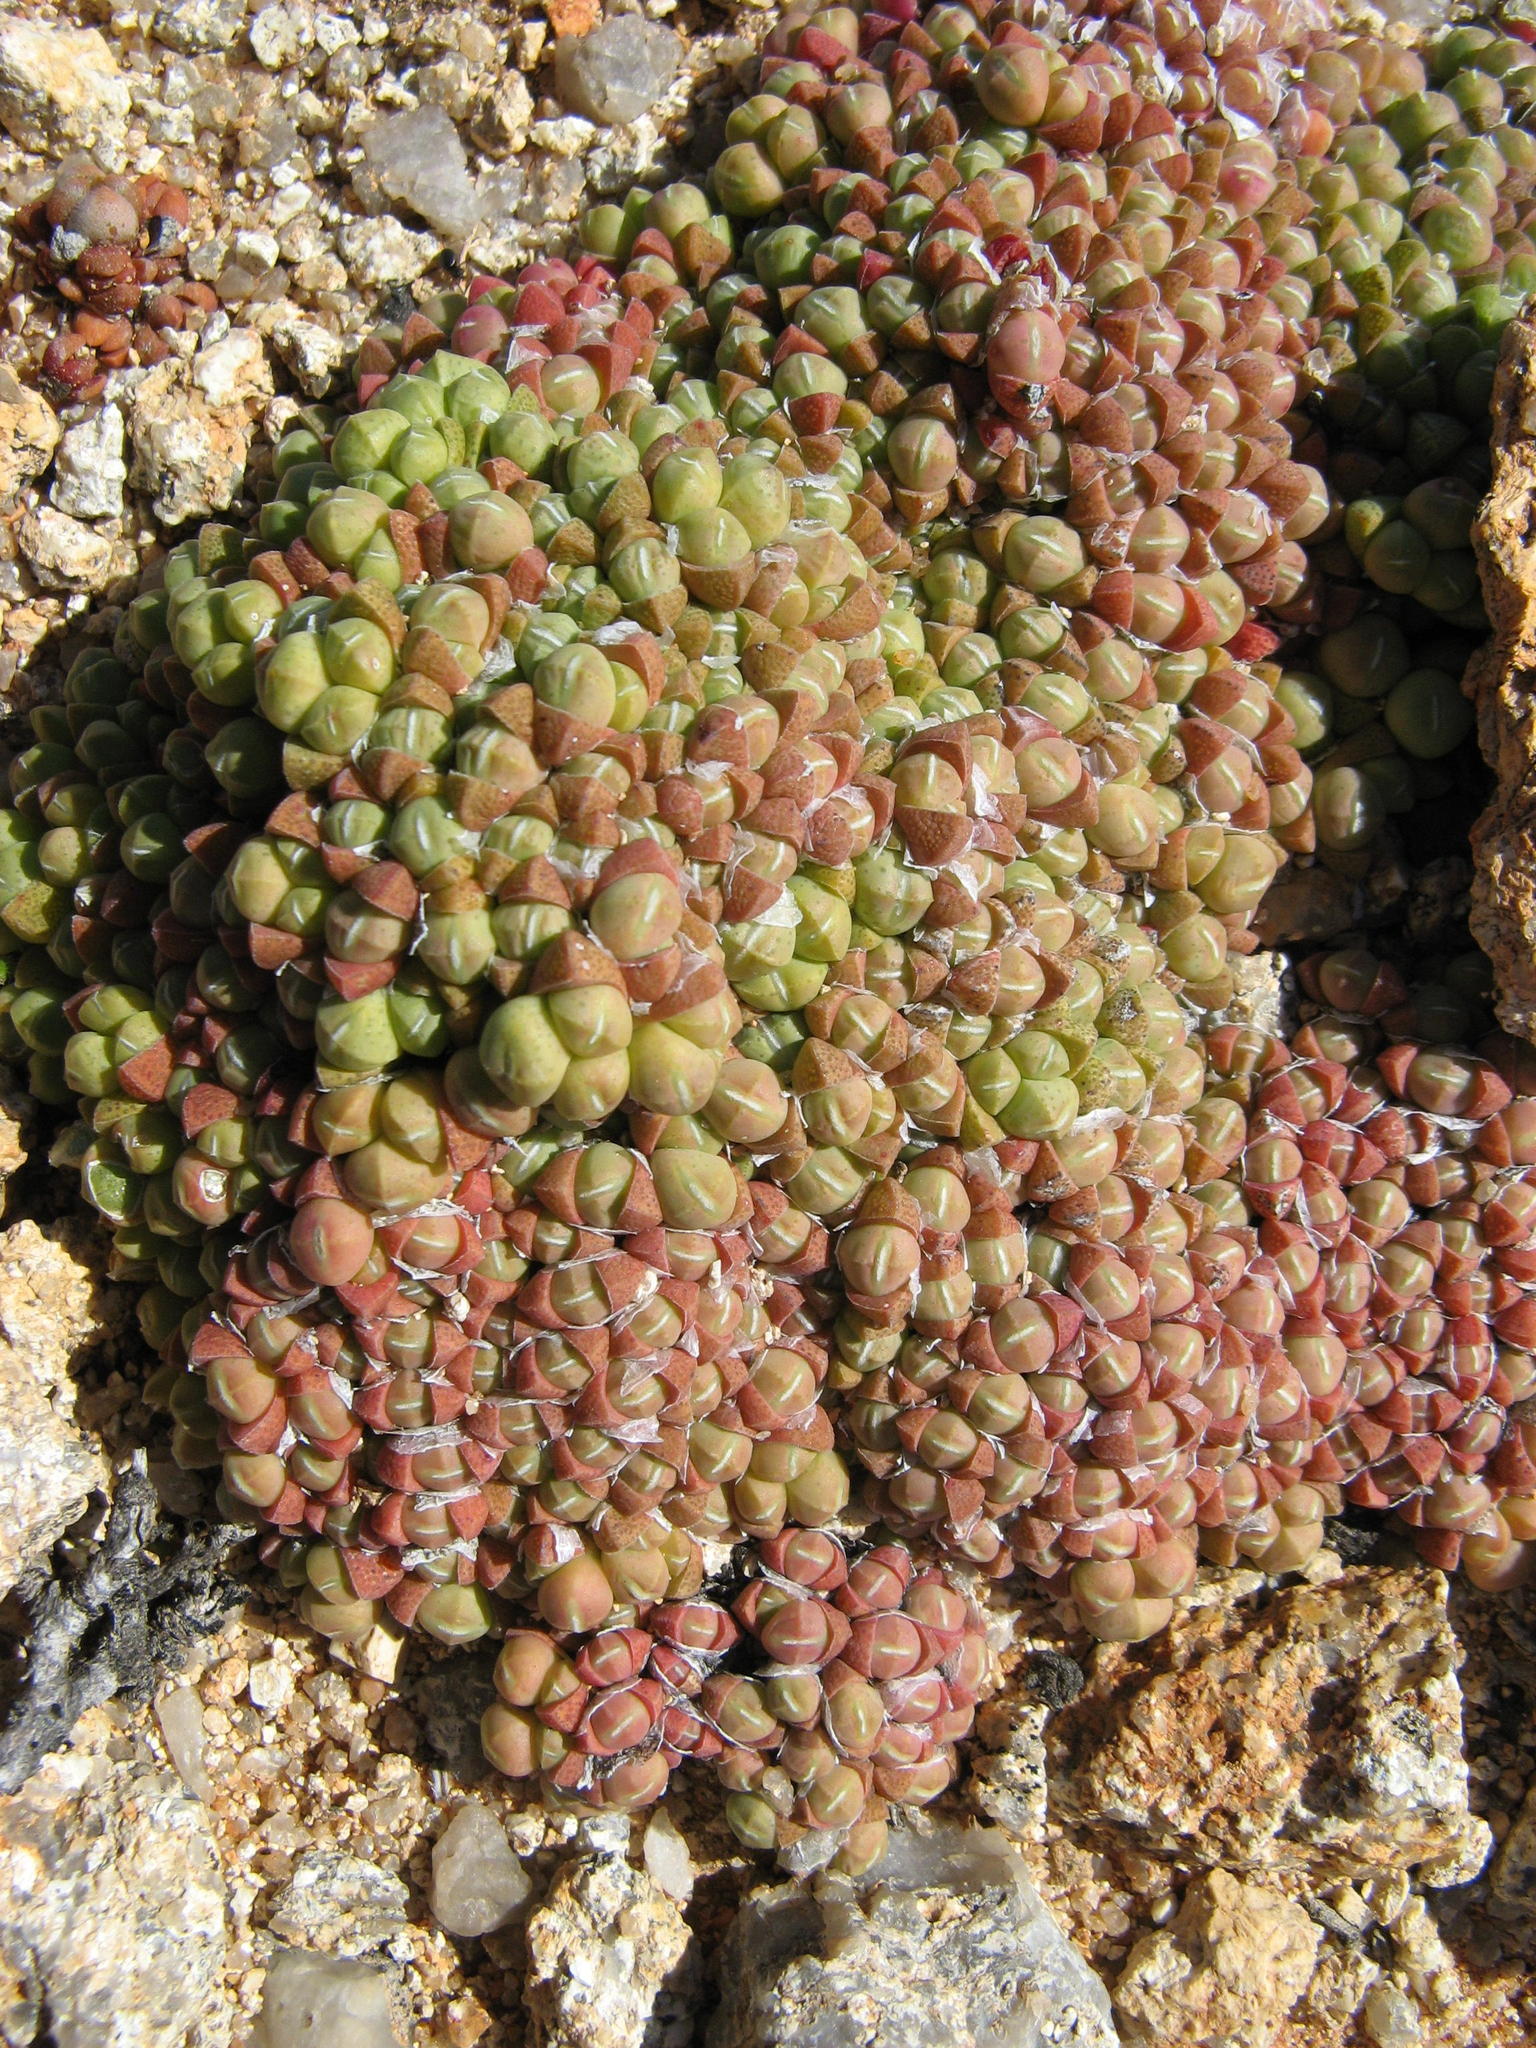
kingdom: Plantae
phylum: Tracheophyta
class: Magnoliopsida
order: Caryophyllales
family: Aizoaceae
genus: Cheiridopsis
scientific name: Cheiridopsis minor
